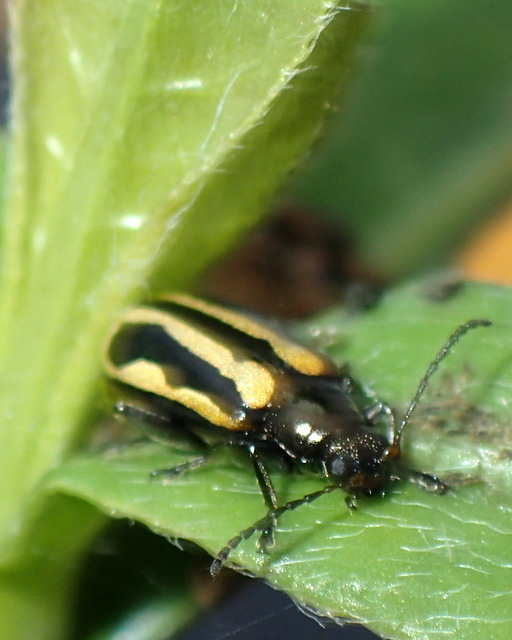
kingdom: Animalia
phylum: Arthropoda
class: Insecta
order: Coleoptera
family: Chrysomelidae
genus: Agasicles
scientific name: Agasicles hygrophila
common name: Alligatorweed flea beetle
